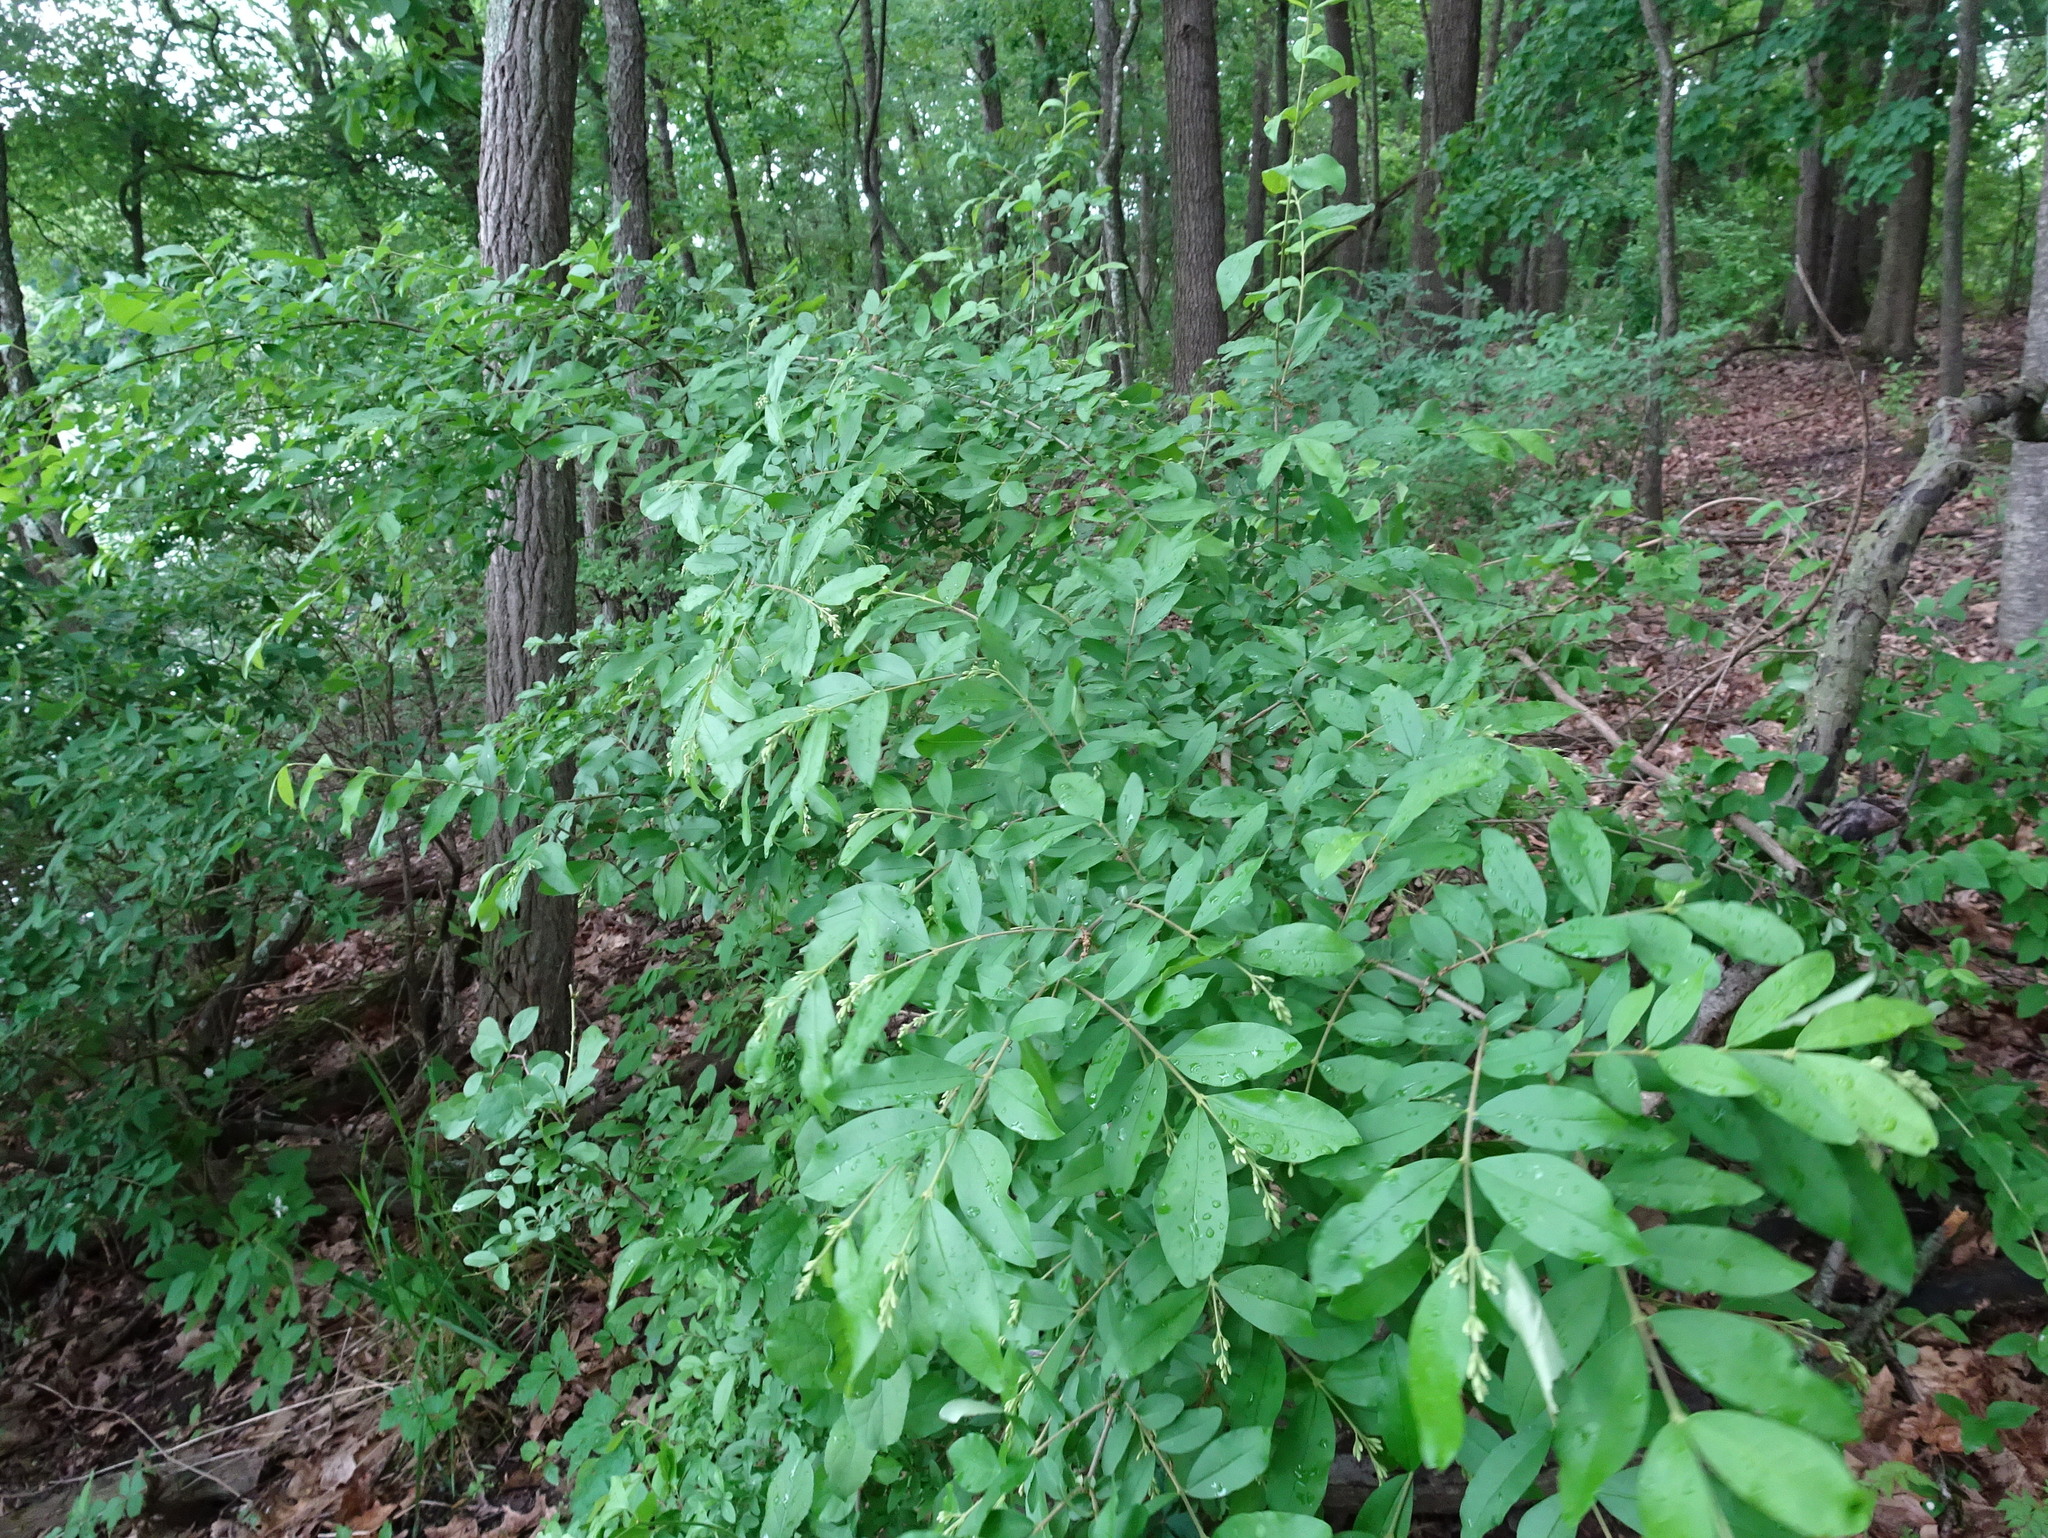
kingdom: Plantae
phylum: Tracheophyta
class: Magnoliopsida
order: Lamiales
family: Oleaceae
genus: Ligustrum
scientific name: Ligustrum obtusifolium
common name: Border privet
